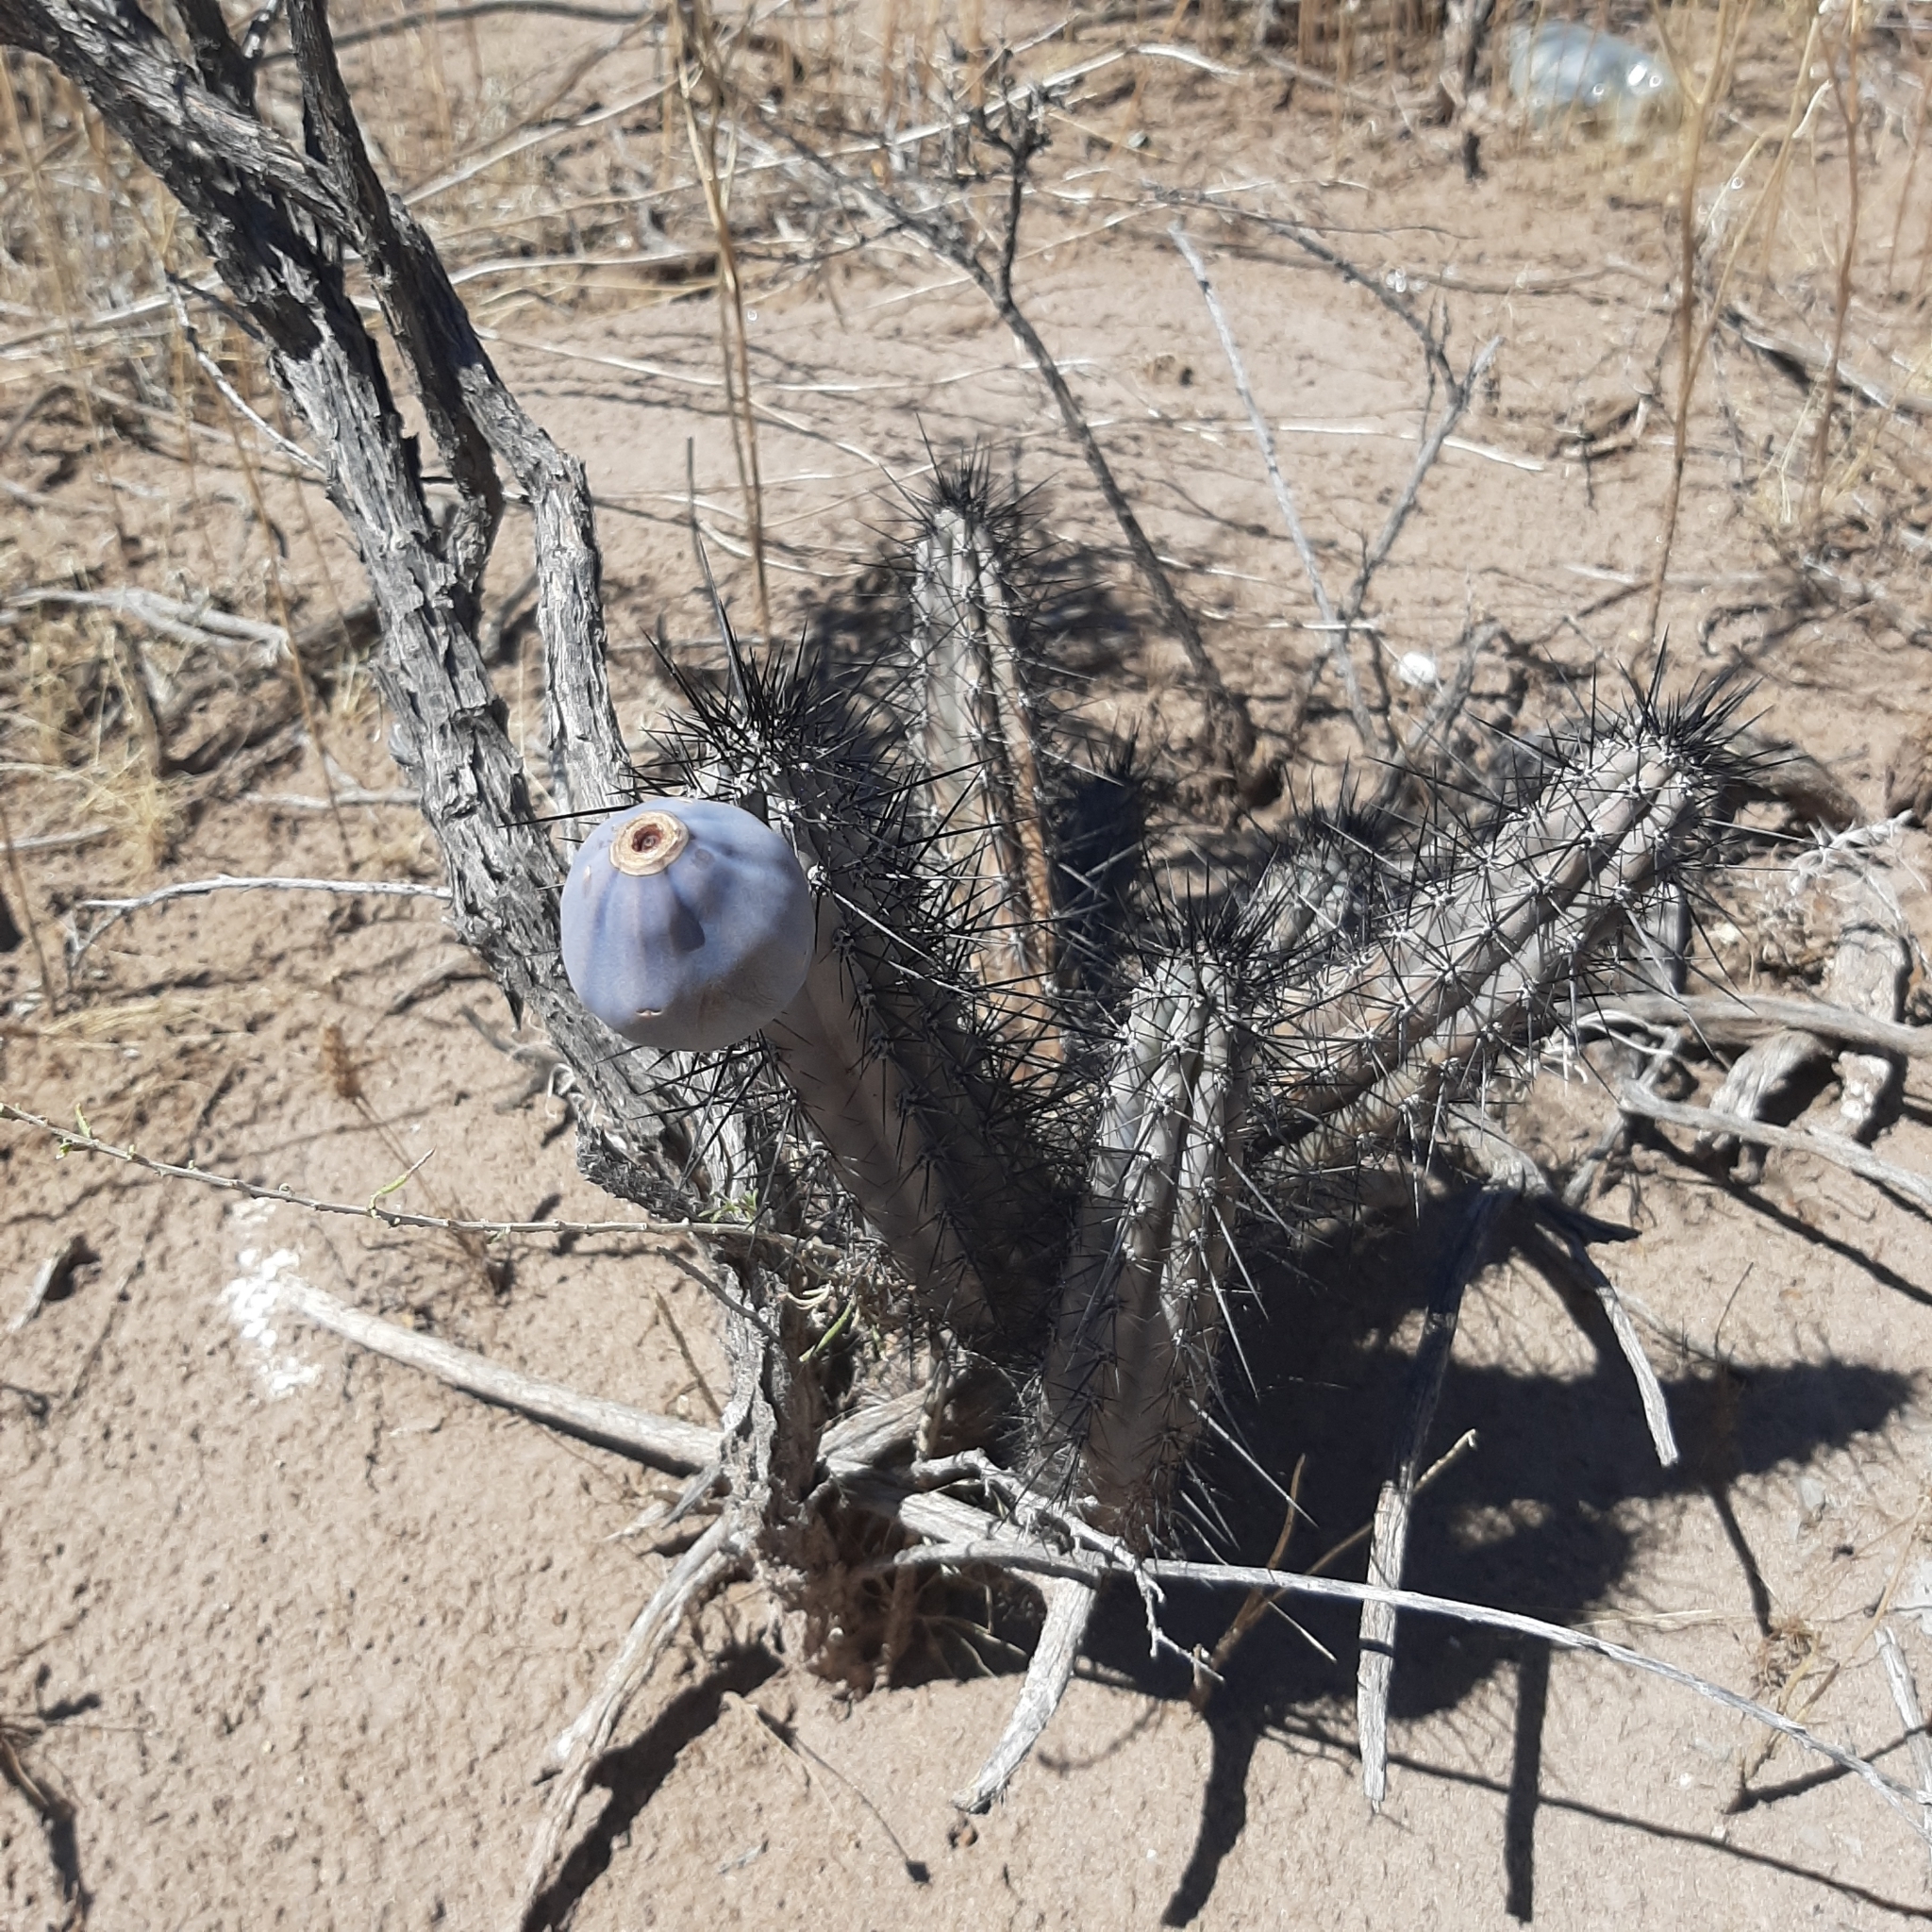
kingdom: Plantae
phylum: Tracheophyta
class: Magnoliopsida
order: Caryophyllales
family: Cactaceae
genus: Cereus
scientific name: Cereus aethiops
